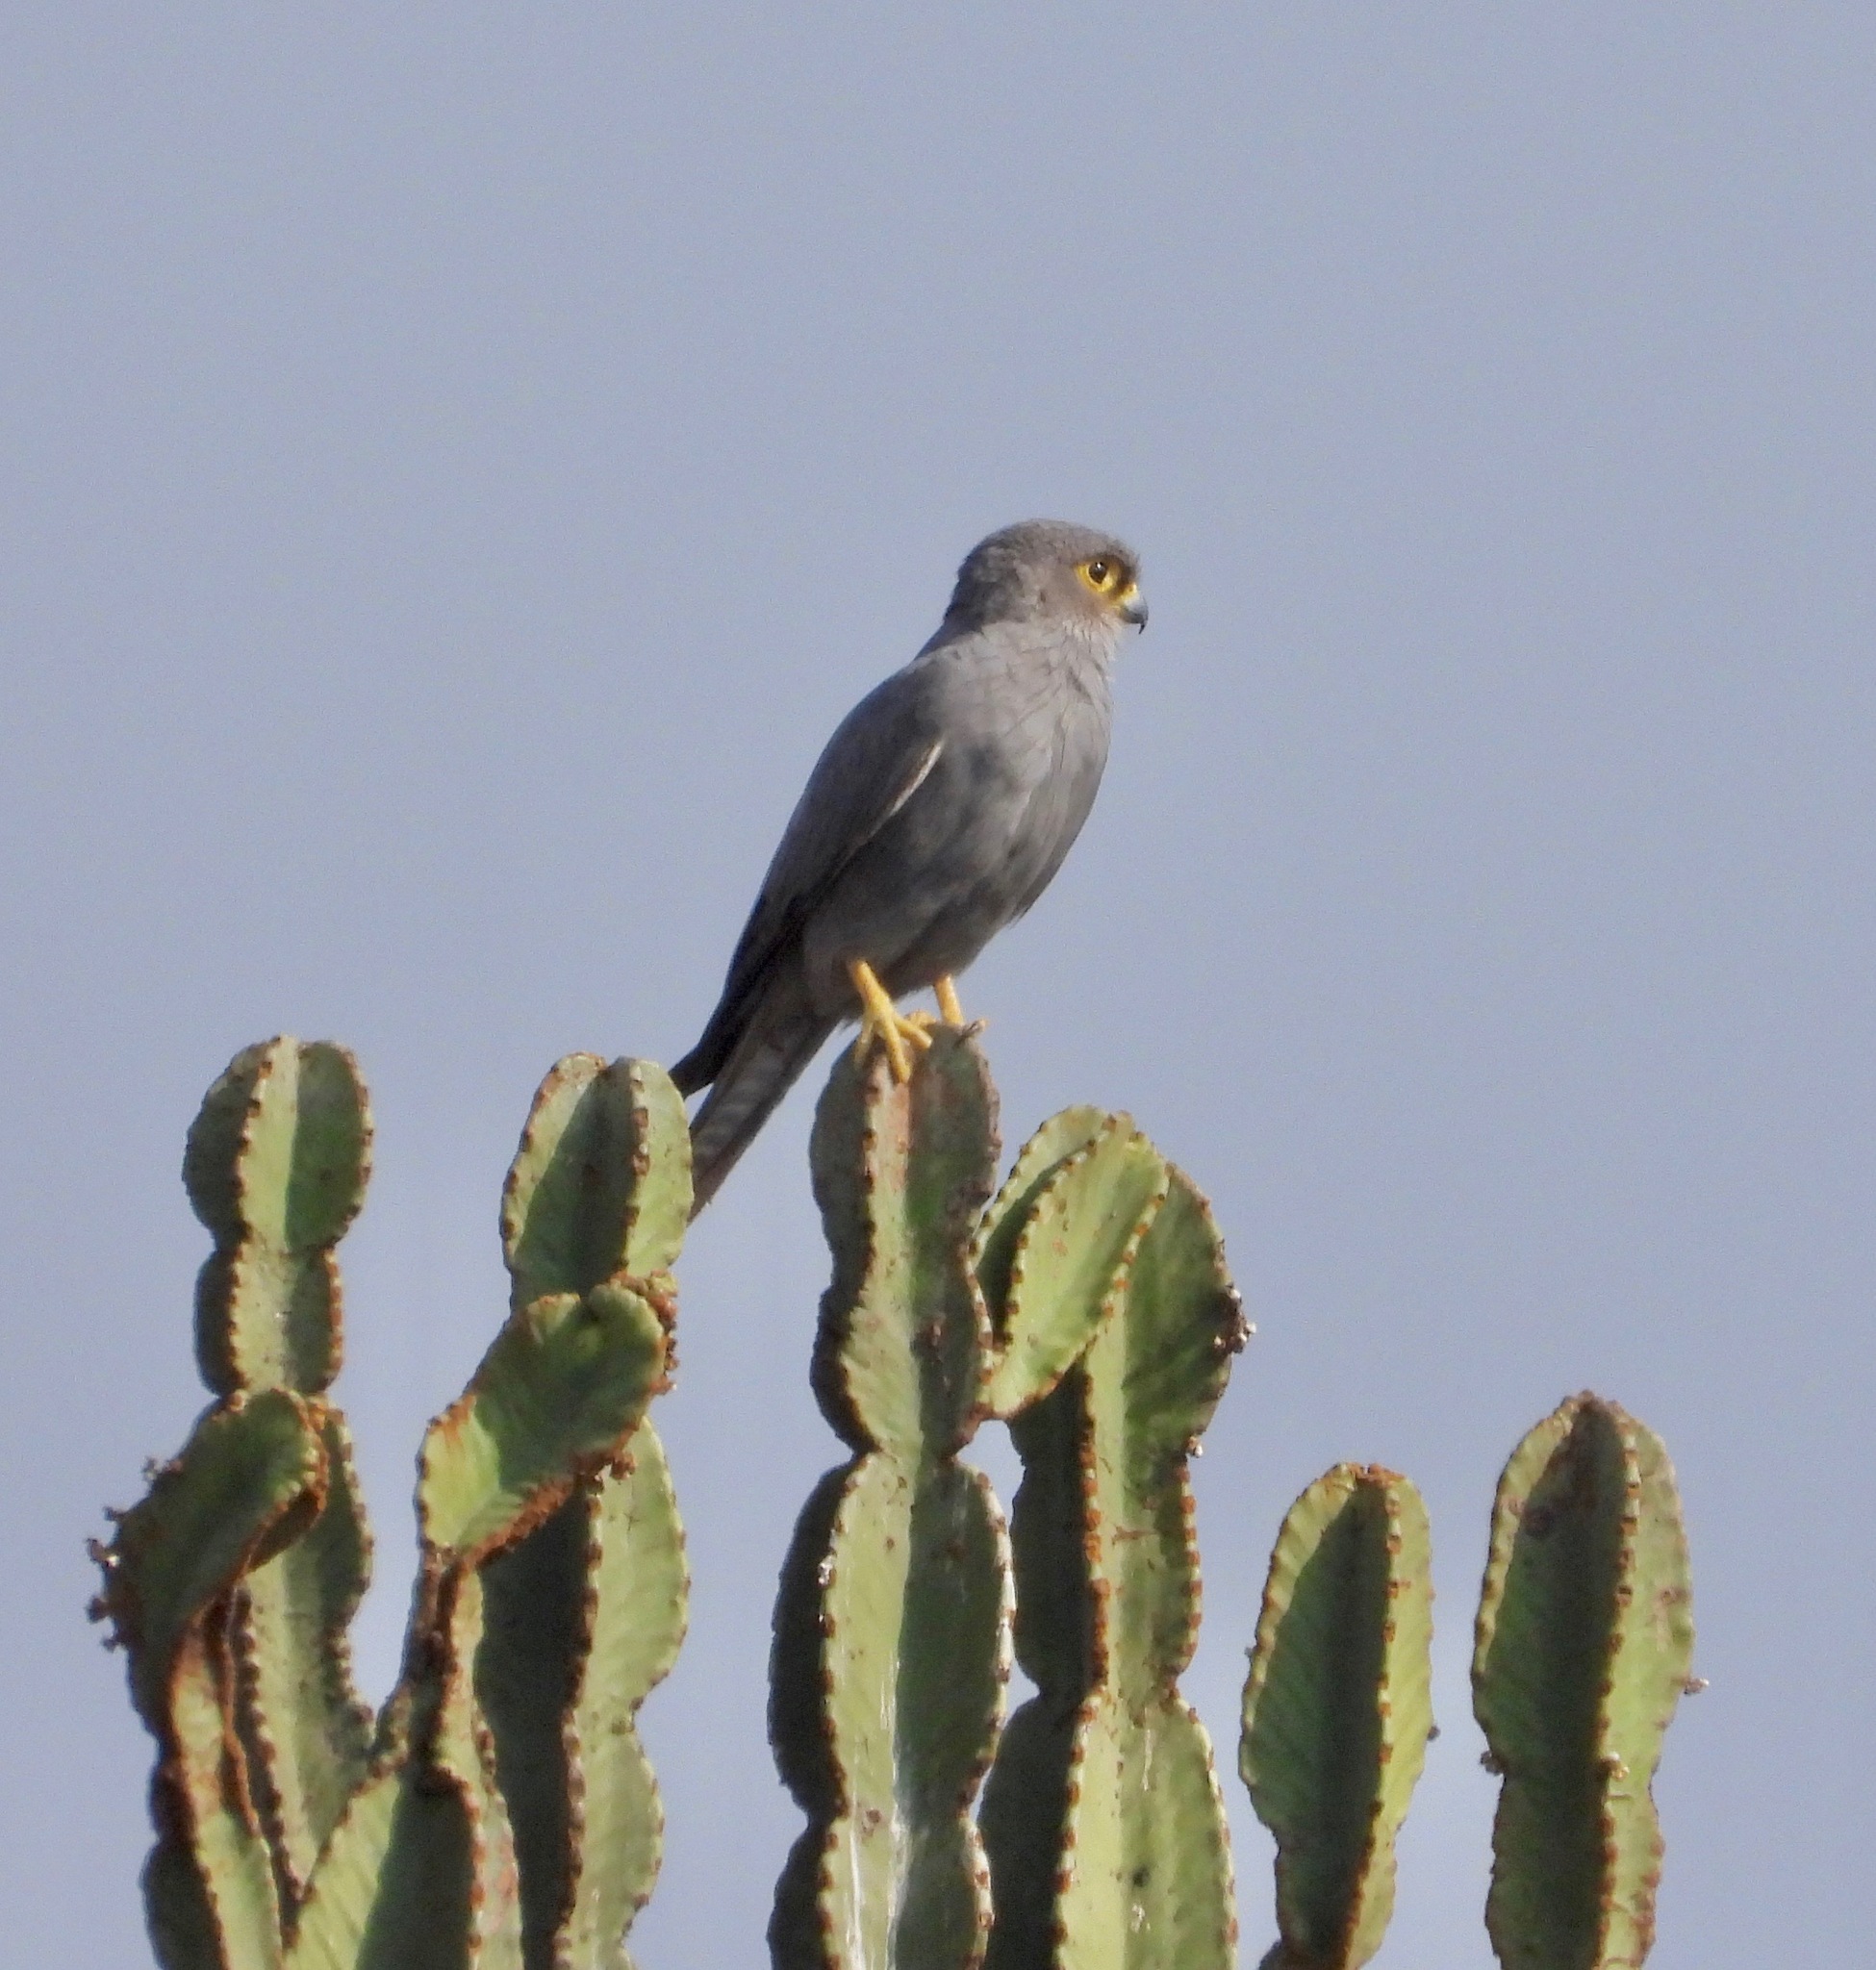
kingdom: Animalia
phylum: Chordata
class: Aves
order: Falconiformes
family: Falconidae
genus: Falco
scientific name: Falco ardosiaceus
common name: Grey kestrel
